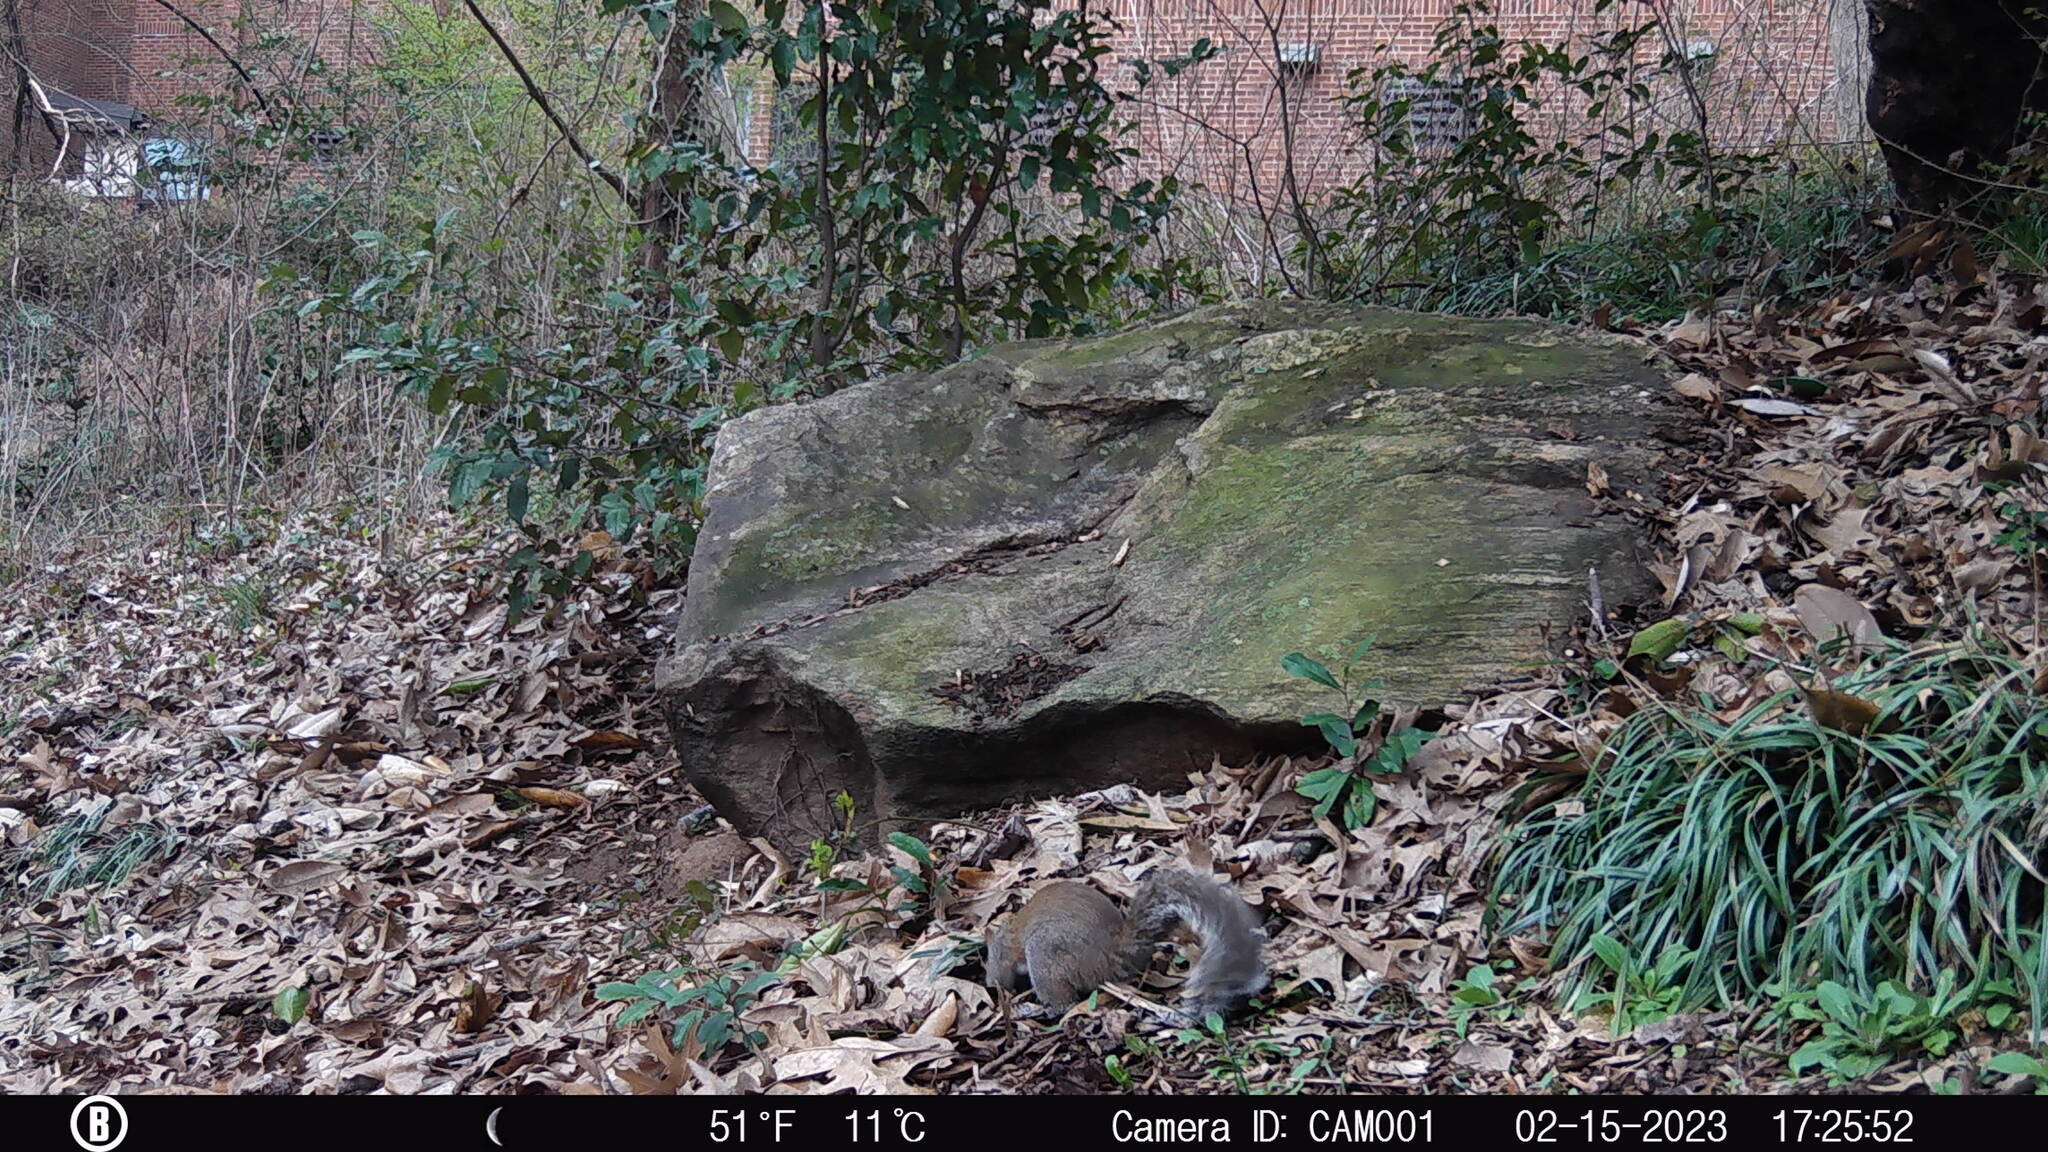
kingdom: Animalia
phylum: Chordata
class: Mammalia
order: Rodentia
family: Sciuridae
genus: Sciurus
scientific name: Sciurus carolinensis
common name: Eastern gray squirrel
